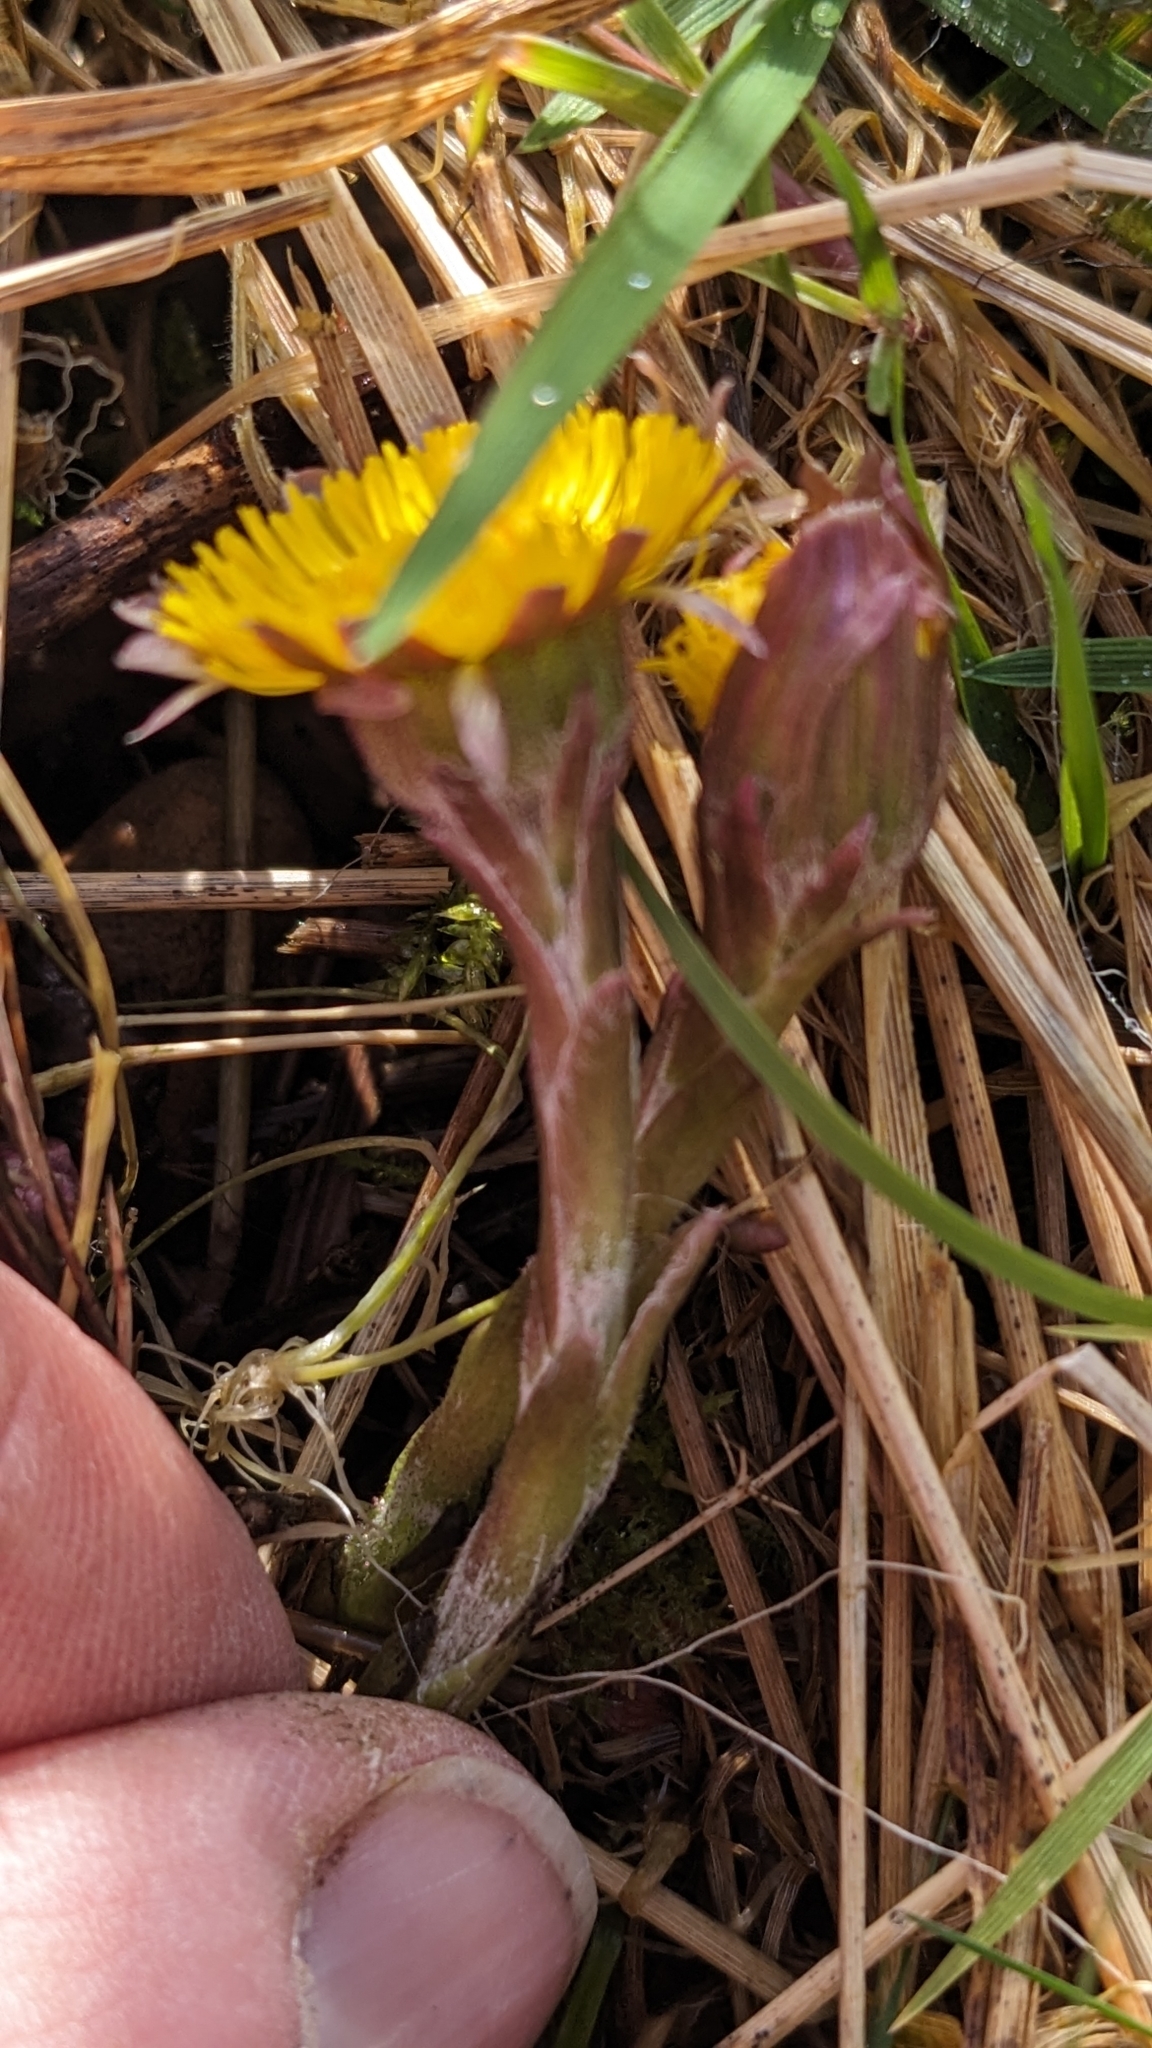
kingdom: Plantae
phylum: Tracheophyta
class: Magnoliopsida
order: Asterales
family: Asteraceae
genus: Tussilago
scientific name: Tussilago farfara
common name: Coltsfoot
